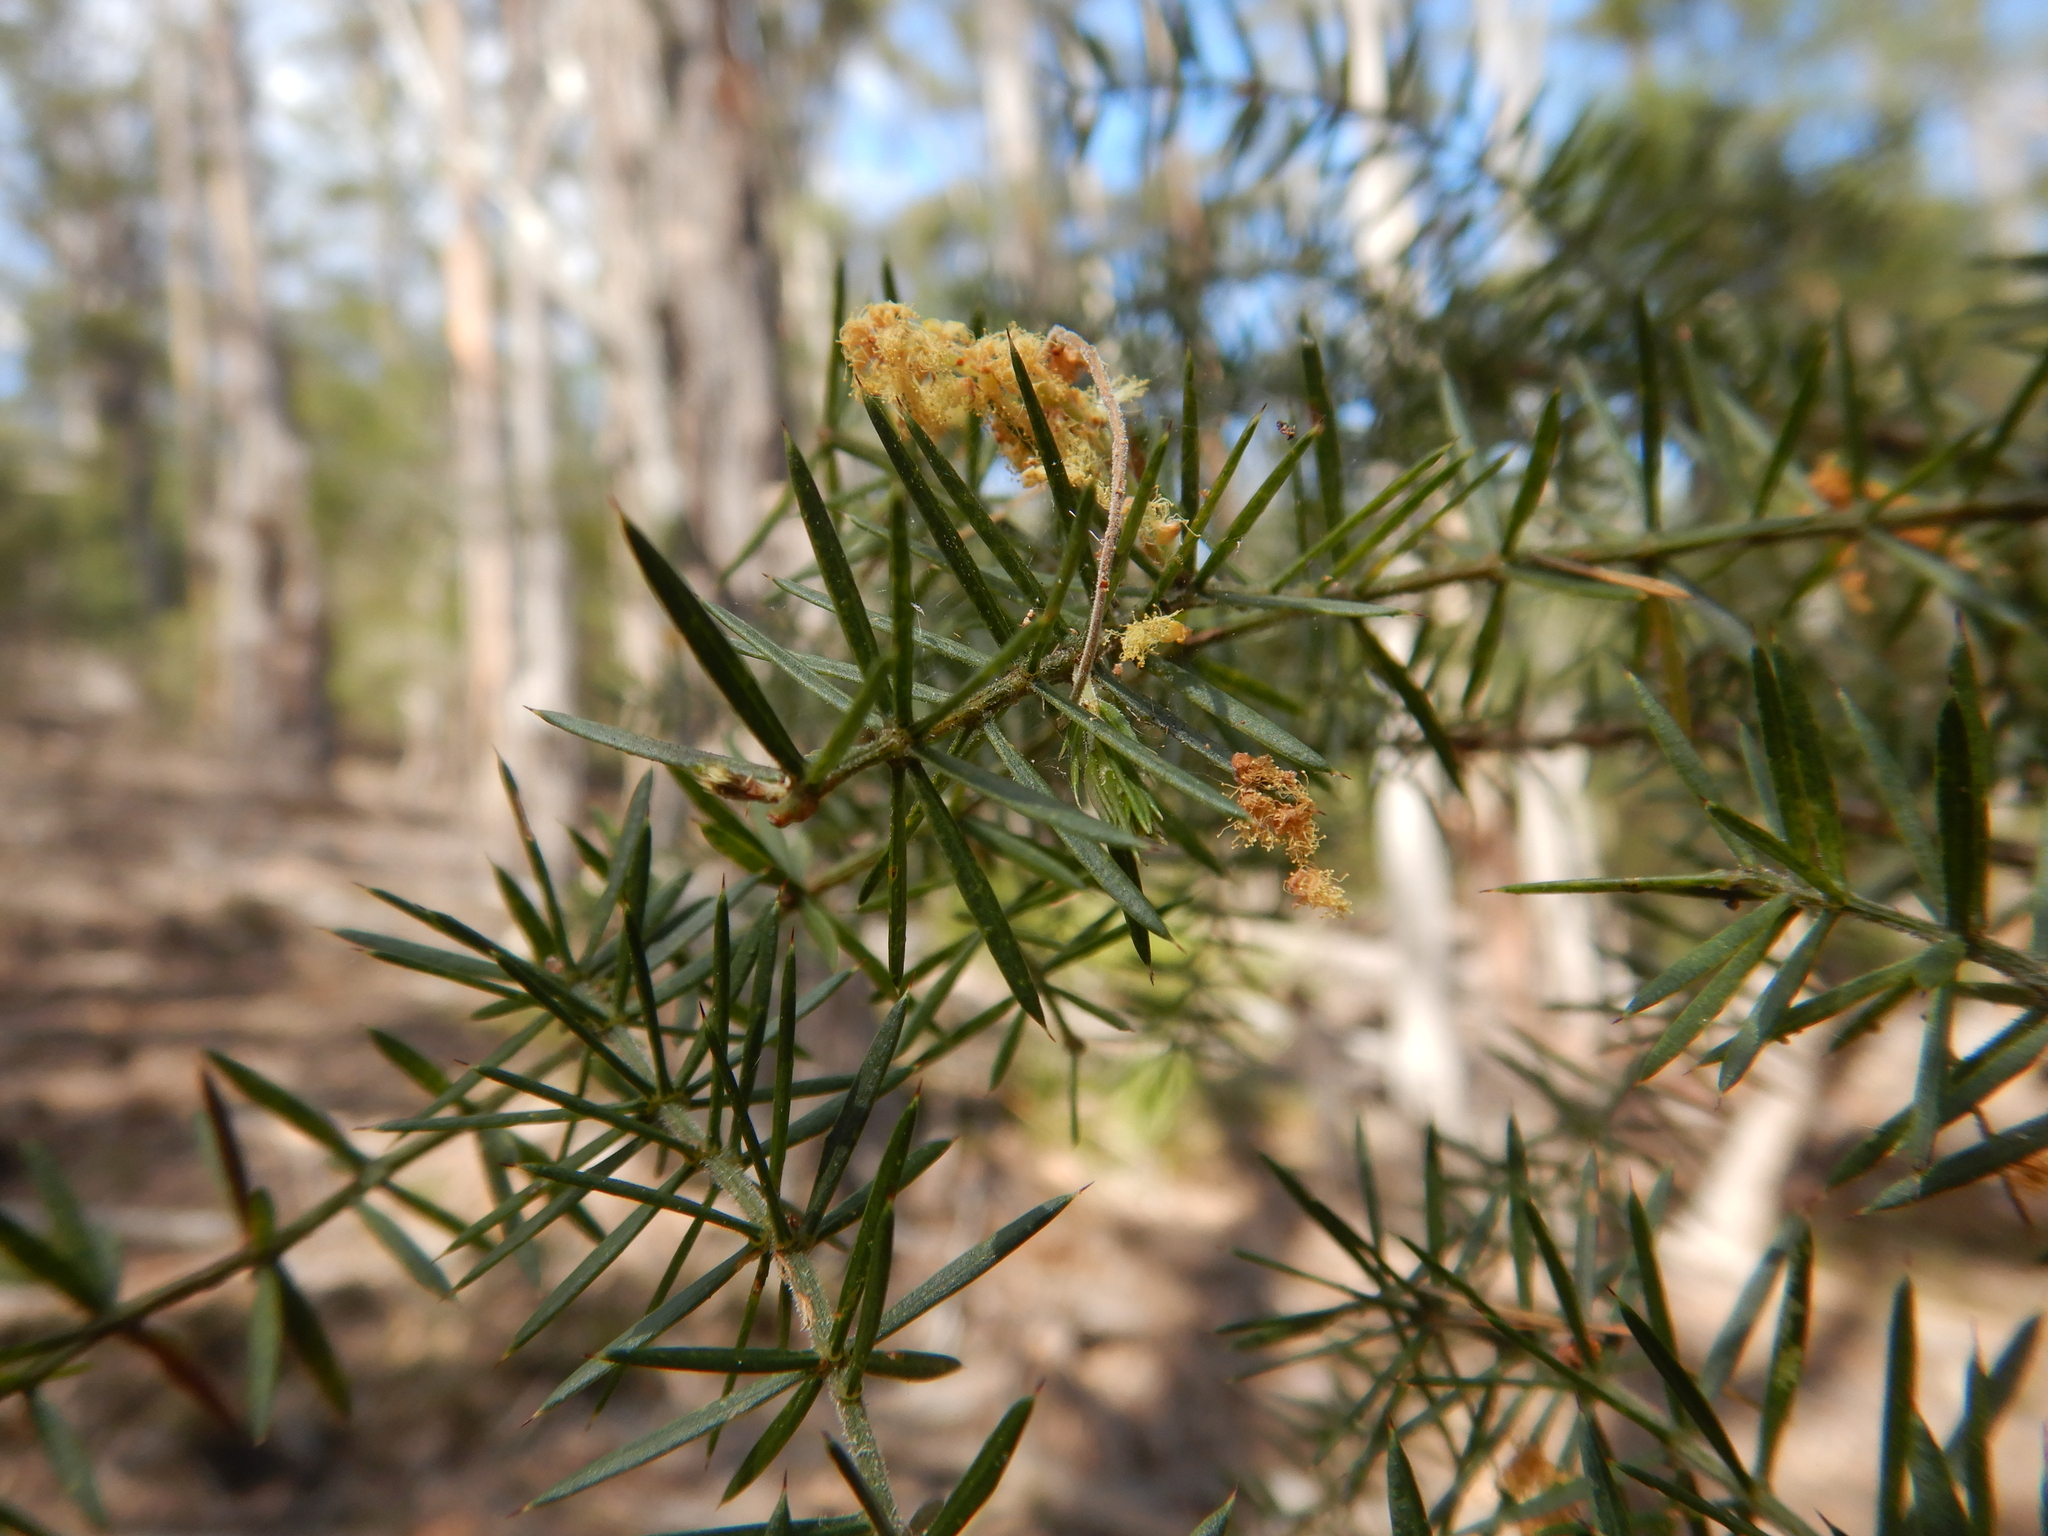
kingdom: Plantae
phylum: Tracheophyta
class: Magnoliopsida
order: Fabales
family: Fabaceae
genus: Acacia
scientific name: Acacia verticillata
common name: Prickly moses
